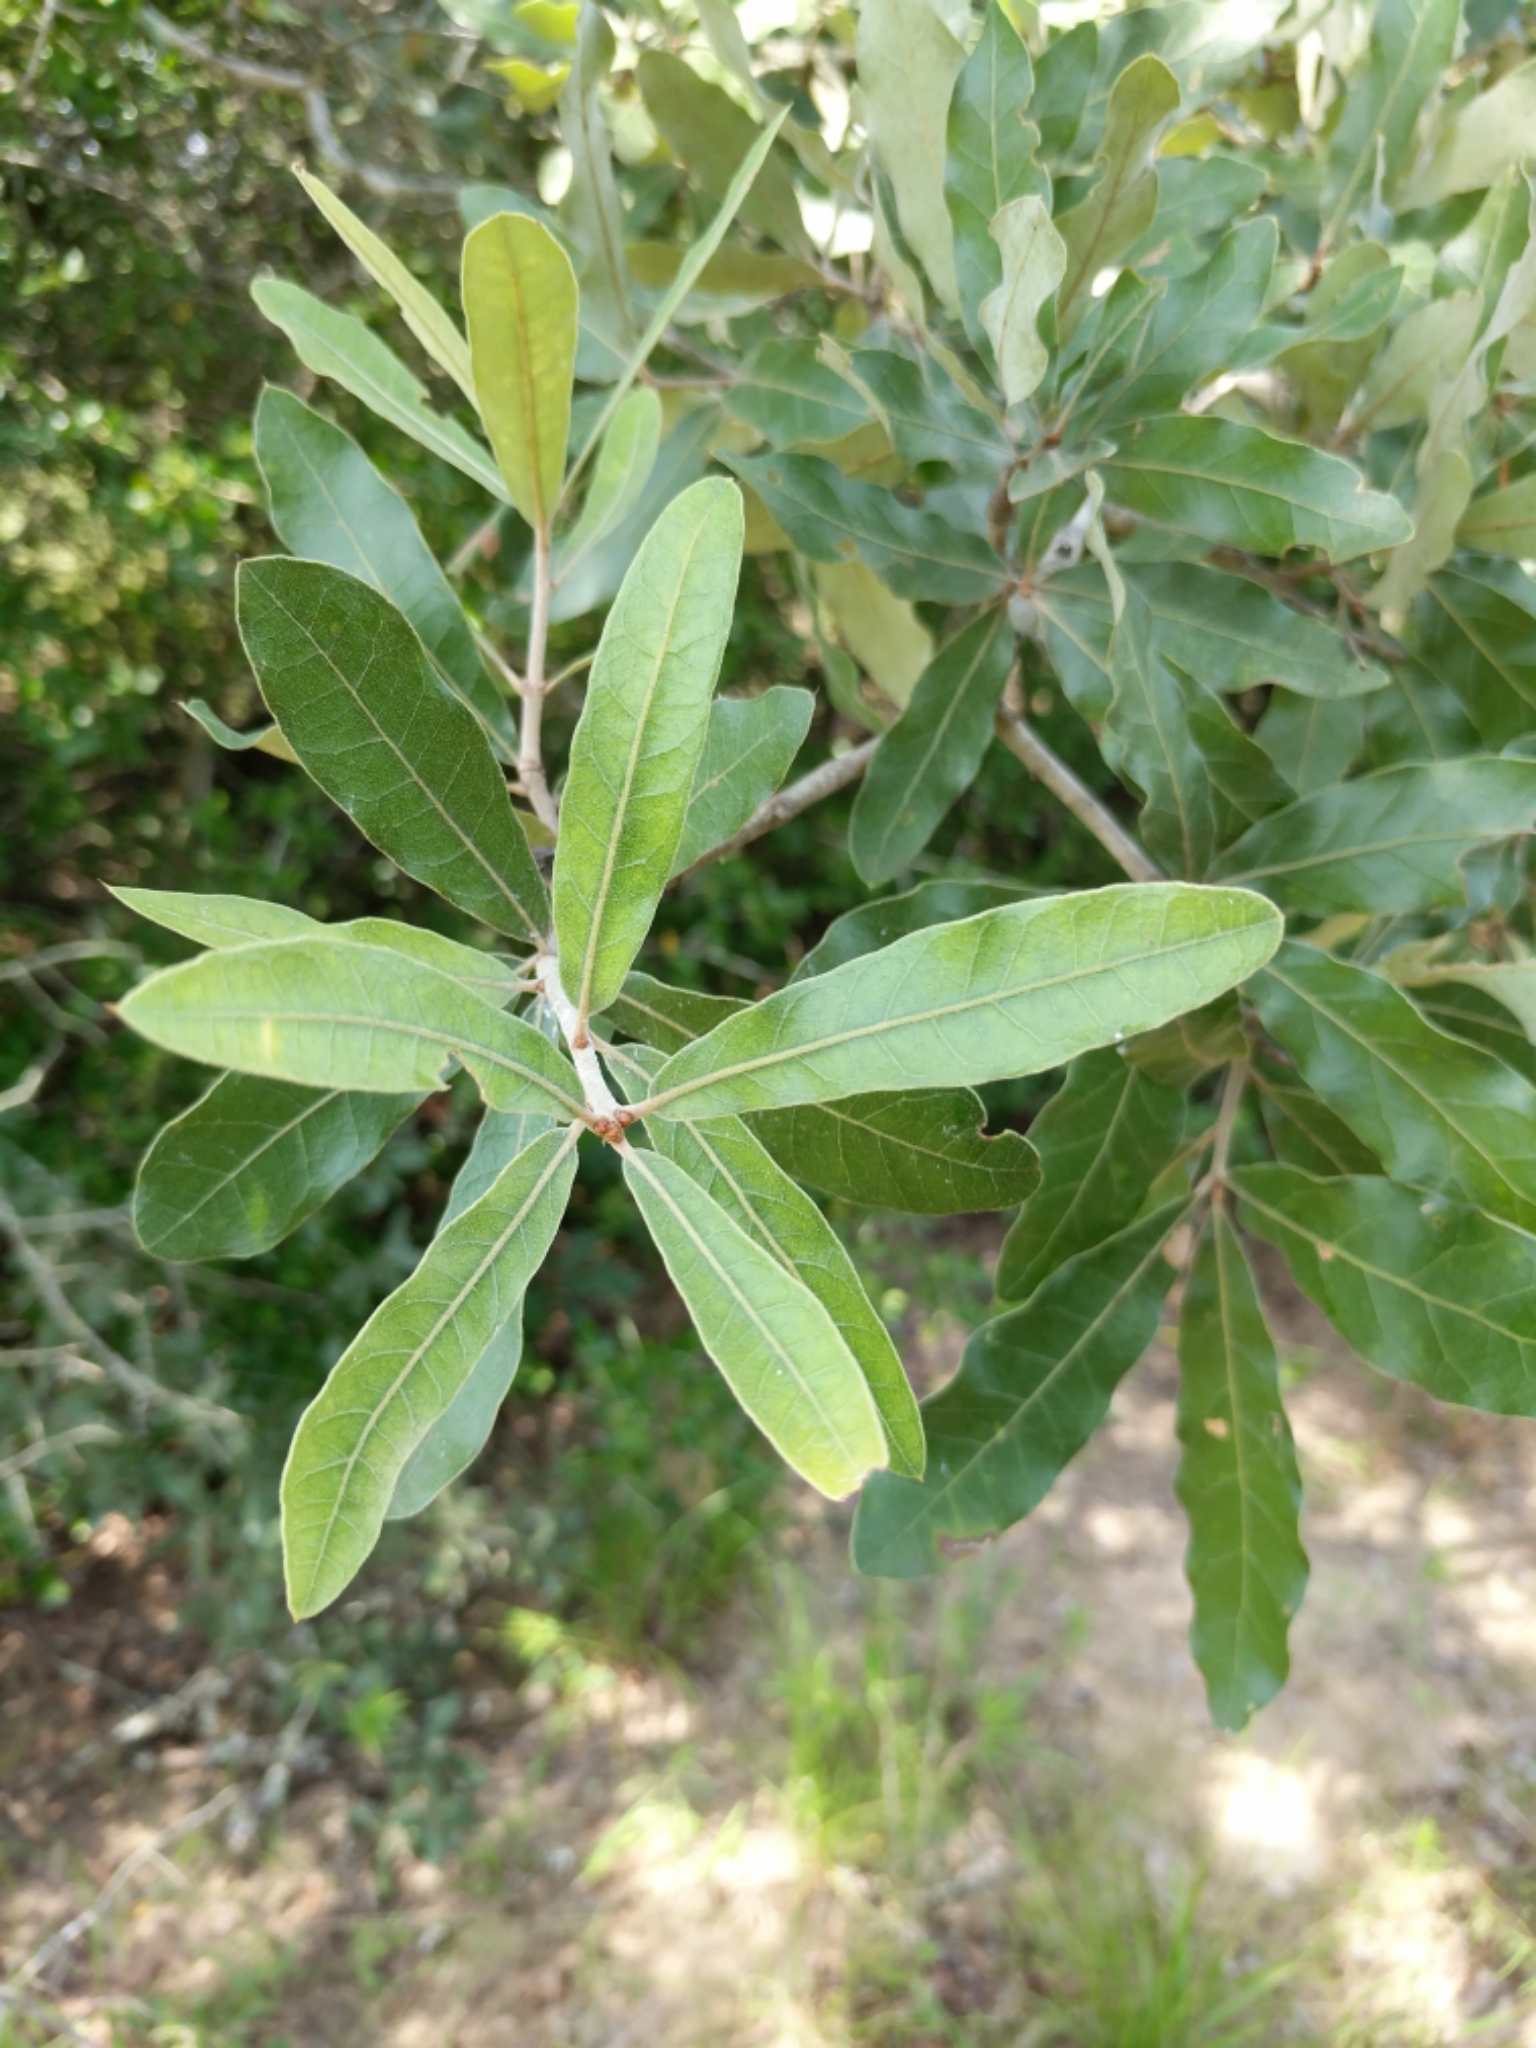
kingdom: Plantae
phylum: Tracheophyta
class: Magnoliopsida
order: Fagales
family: Fagaceae
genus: Quercus
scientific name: Quercus incana
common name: Bluejack oak
